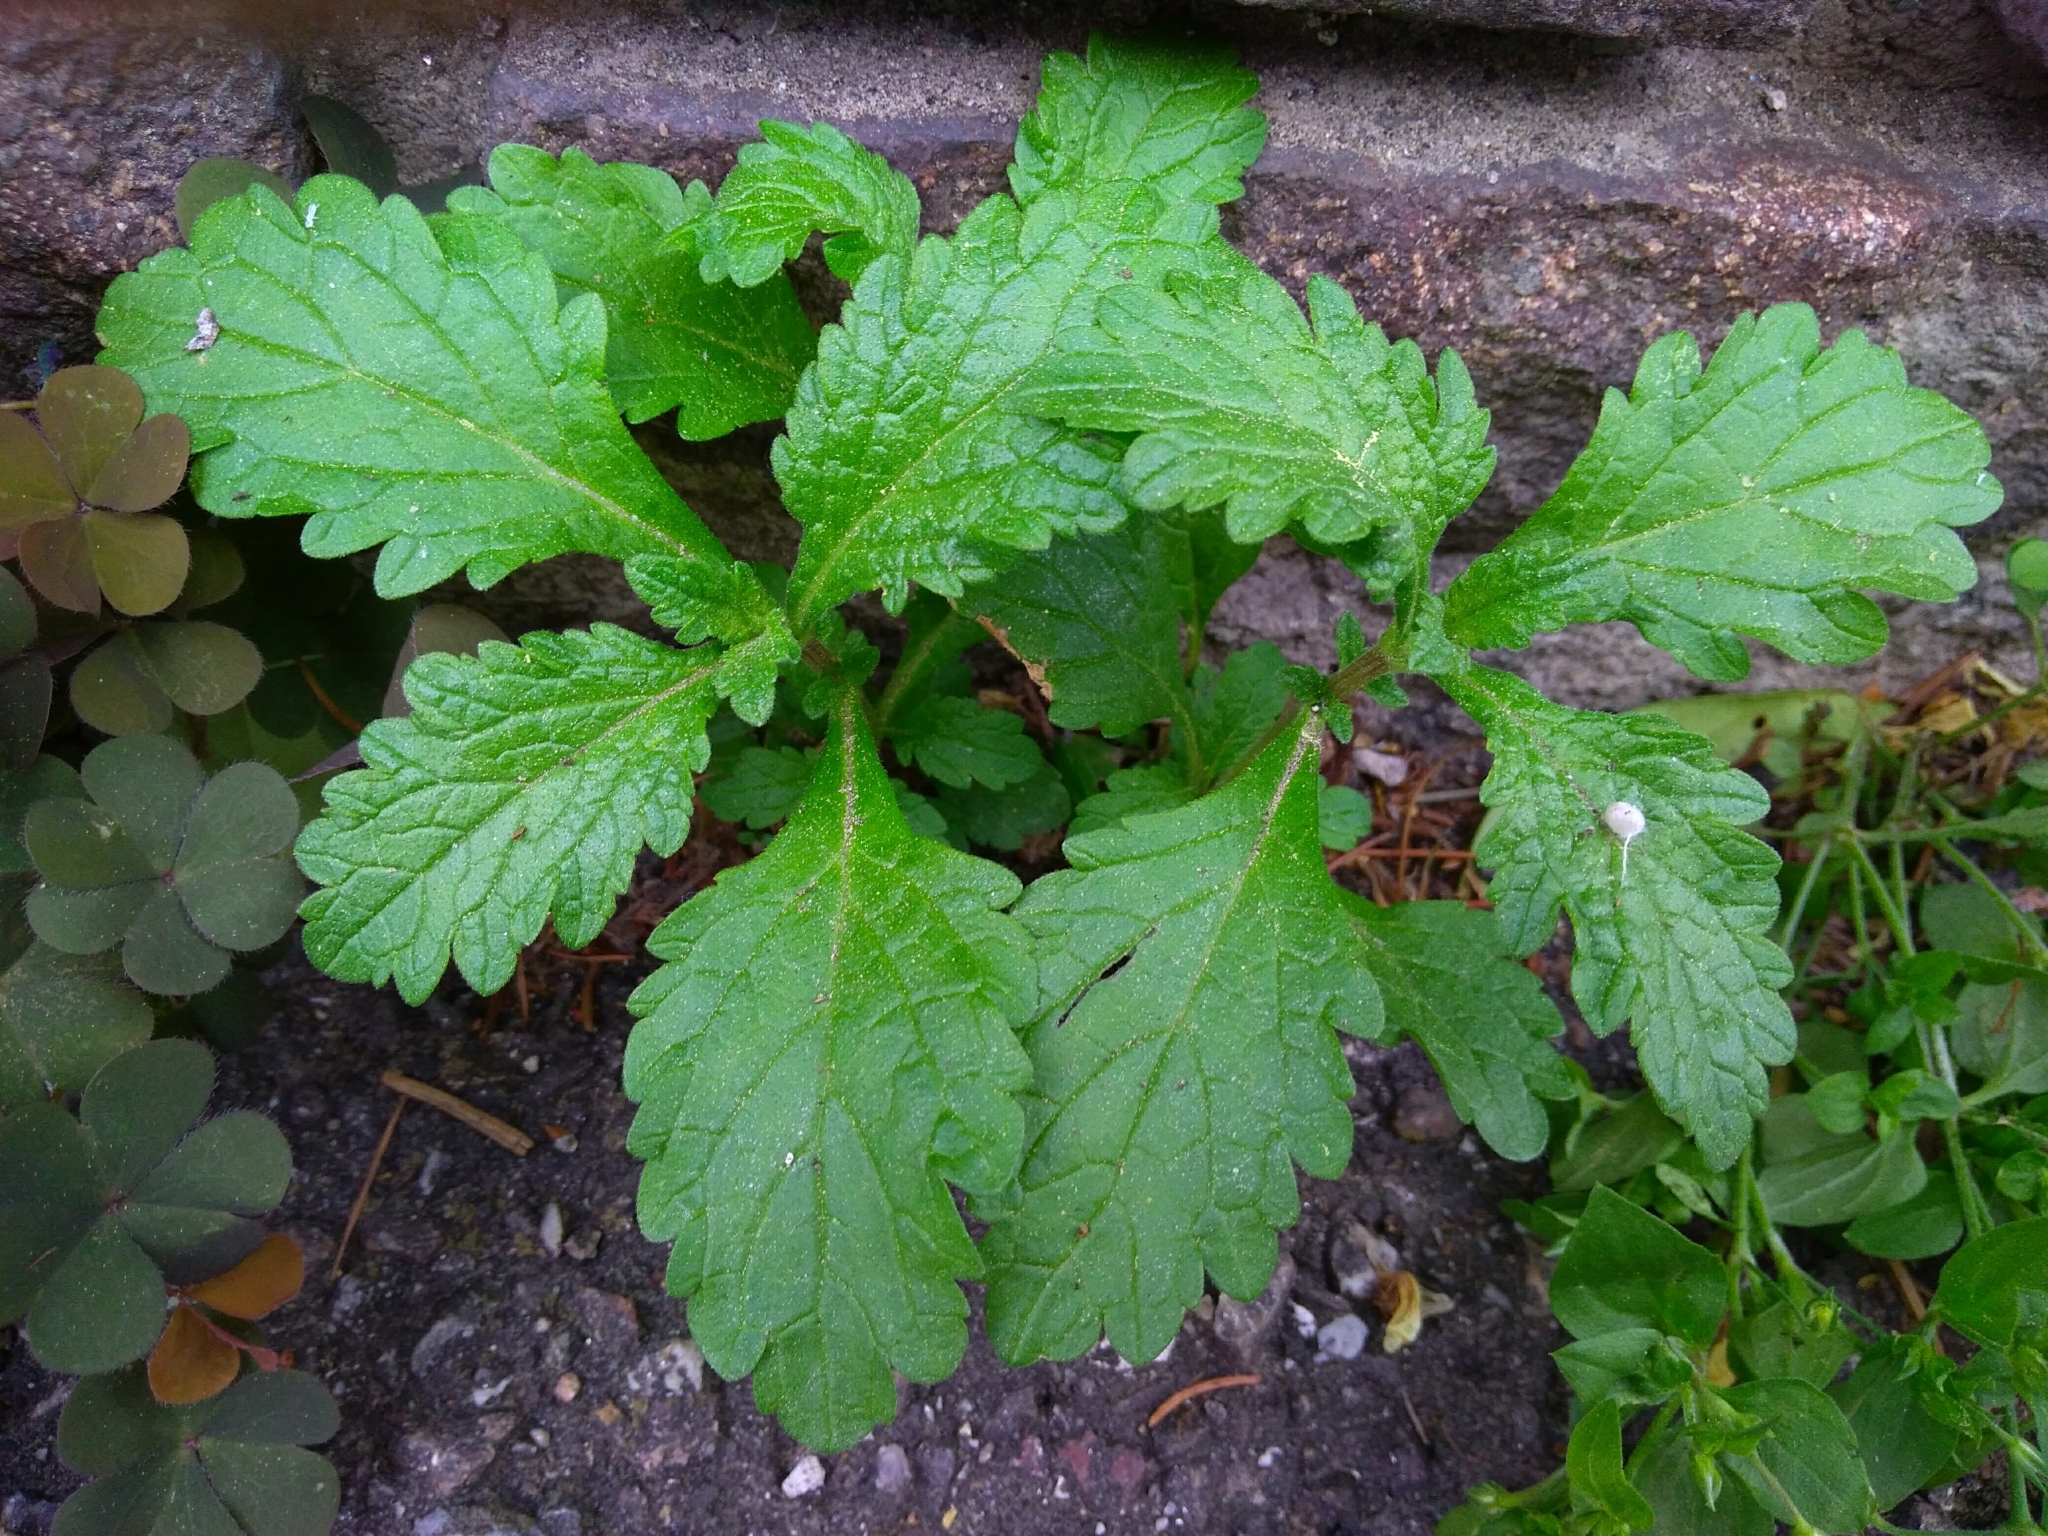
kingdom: Plantae
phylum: Tracheophyta
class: Magnoliopsida
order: Lamiales
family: Verbenaceae
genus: Verbena
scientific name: Verbena officinalis
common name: Vervain
